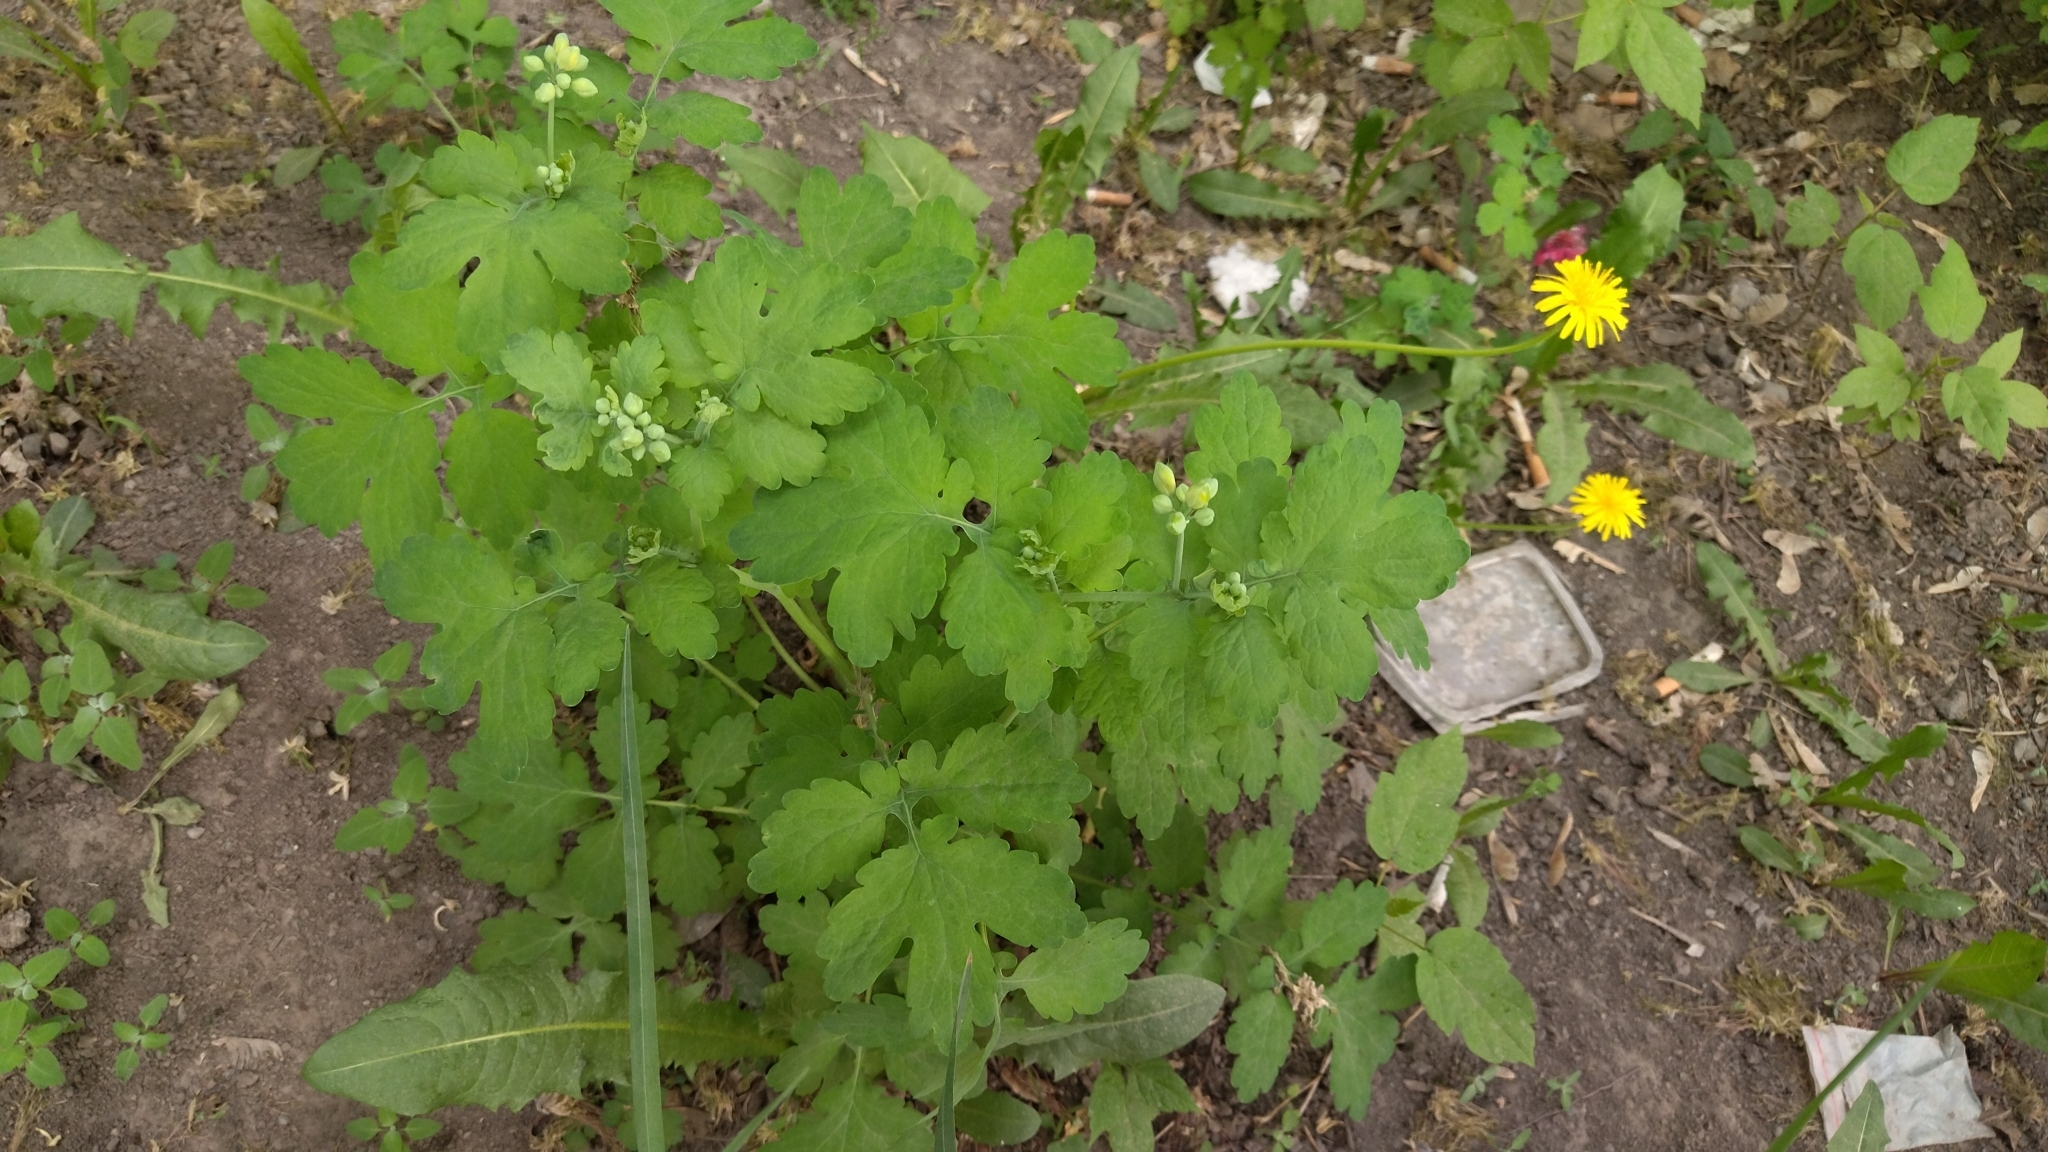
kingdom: Plantae
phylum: Tracheophyta
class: Magnoliopsida
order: Ranunculales
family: Papaveraceae
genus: Chelidonium
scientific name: Chelidonium majus
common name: Greater celandine
